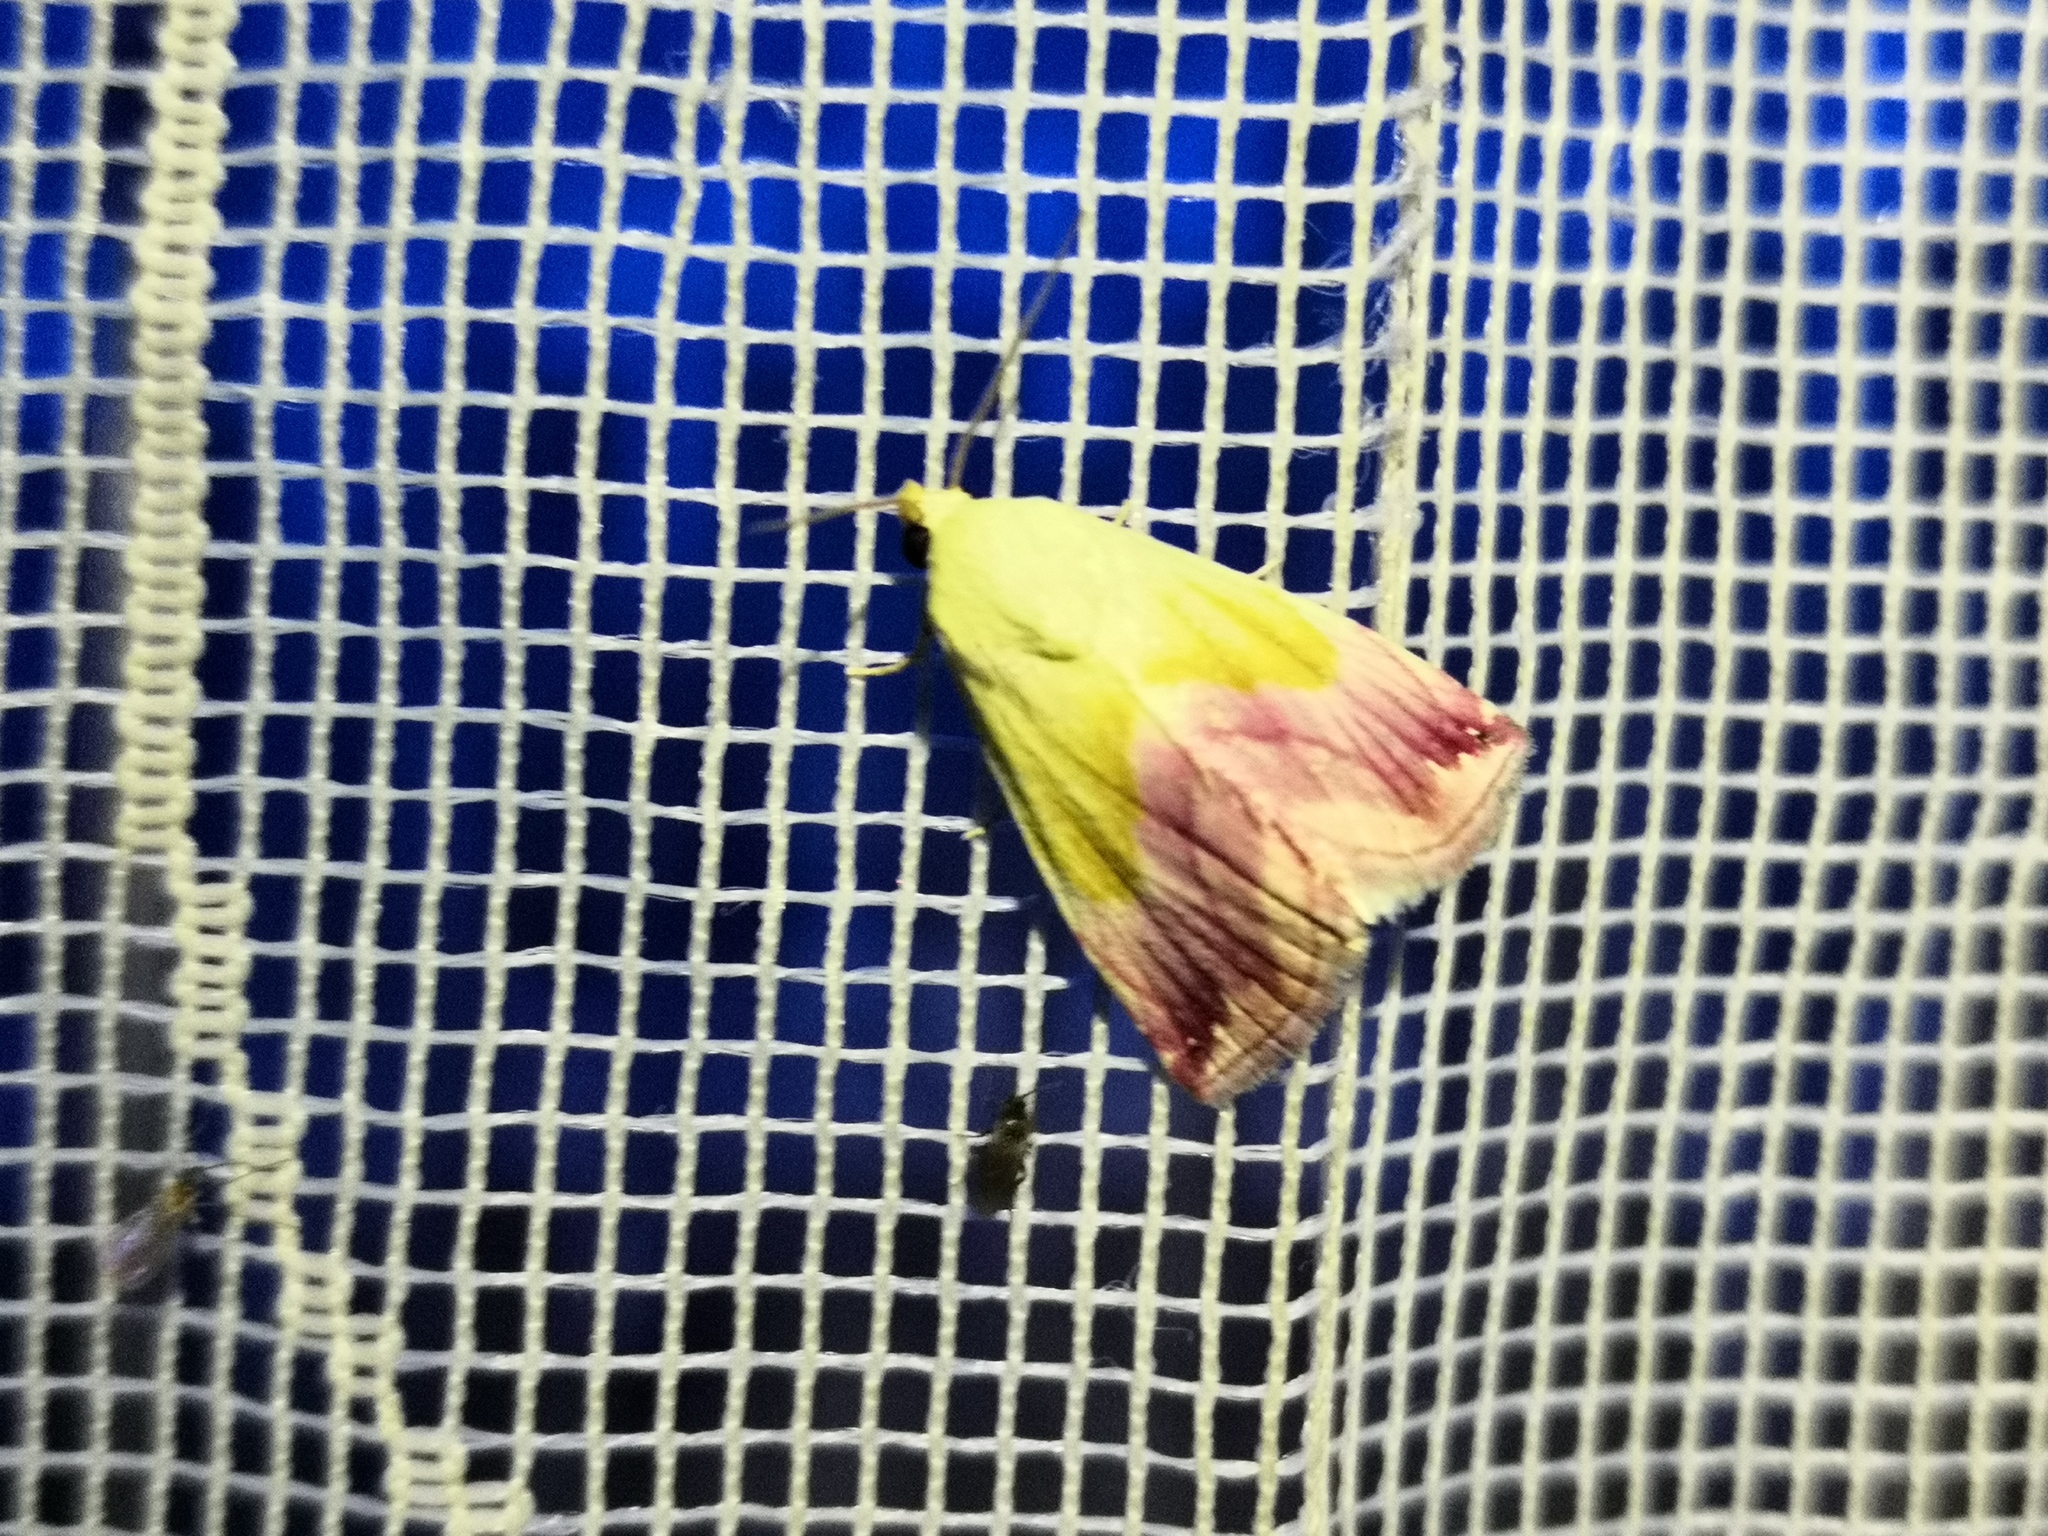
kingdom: Animalia
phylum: Arthropoda
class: Insecta
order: Lepidoptera
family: Noctuidae
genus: Eublemma
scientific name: Eublemma purpurina
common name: Beautiful marbled
